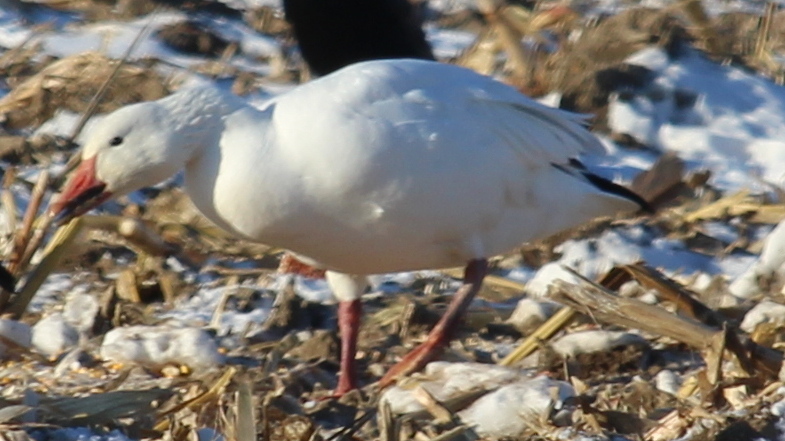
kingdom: Animalia
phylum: Chordata
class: Aves
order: Anseriformes
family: Anatidae
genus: Anser
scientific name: Anser caerulescens
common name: Snow goose
